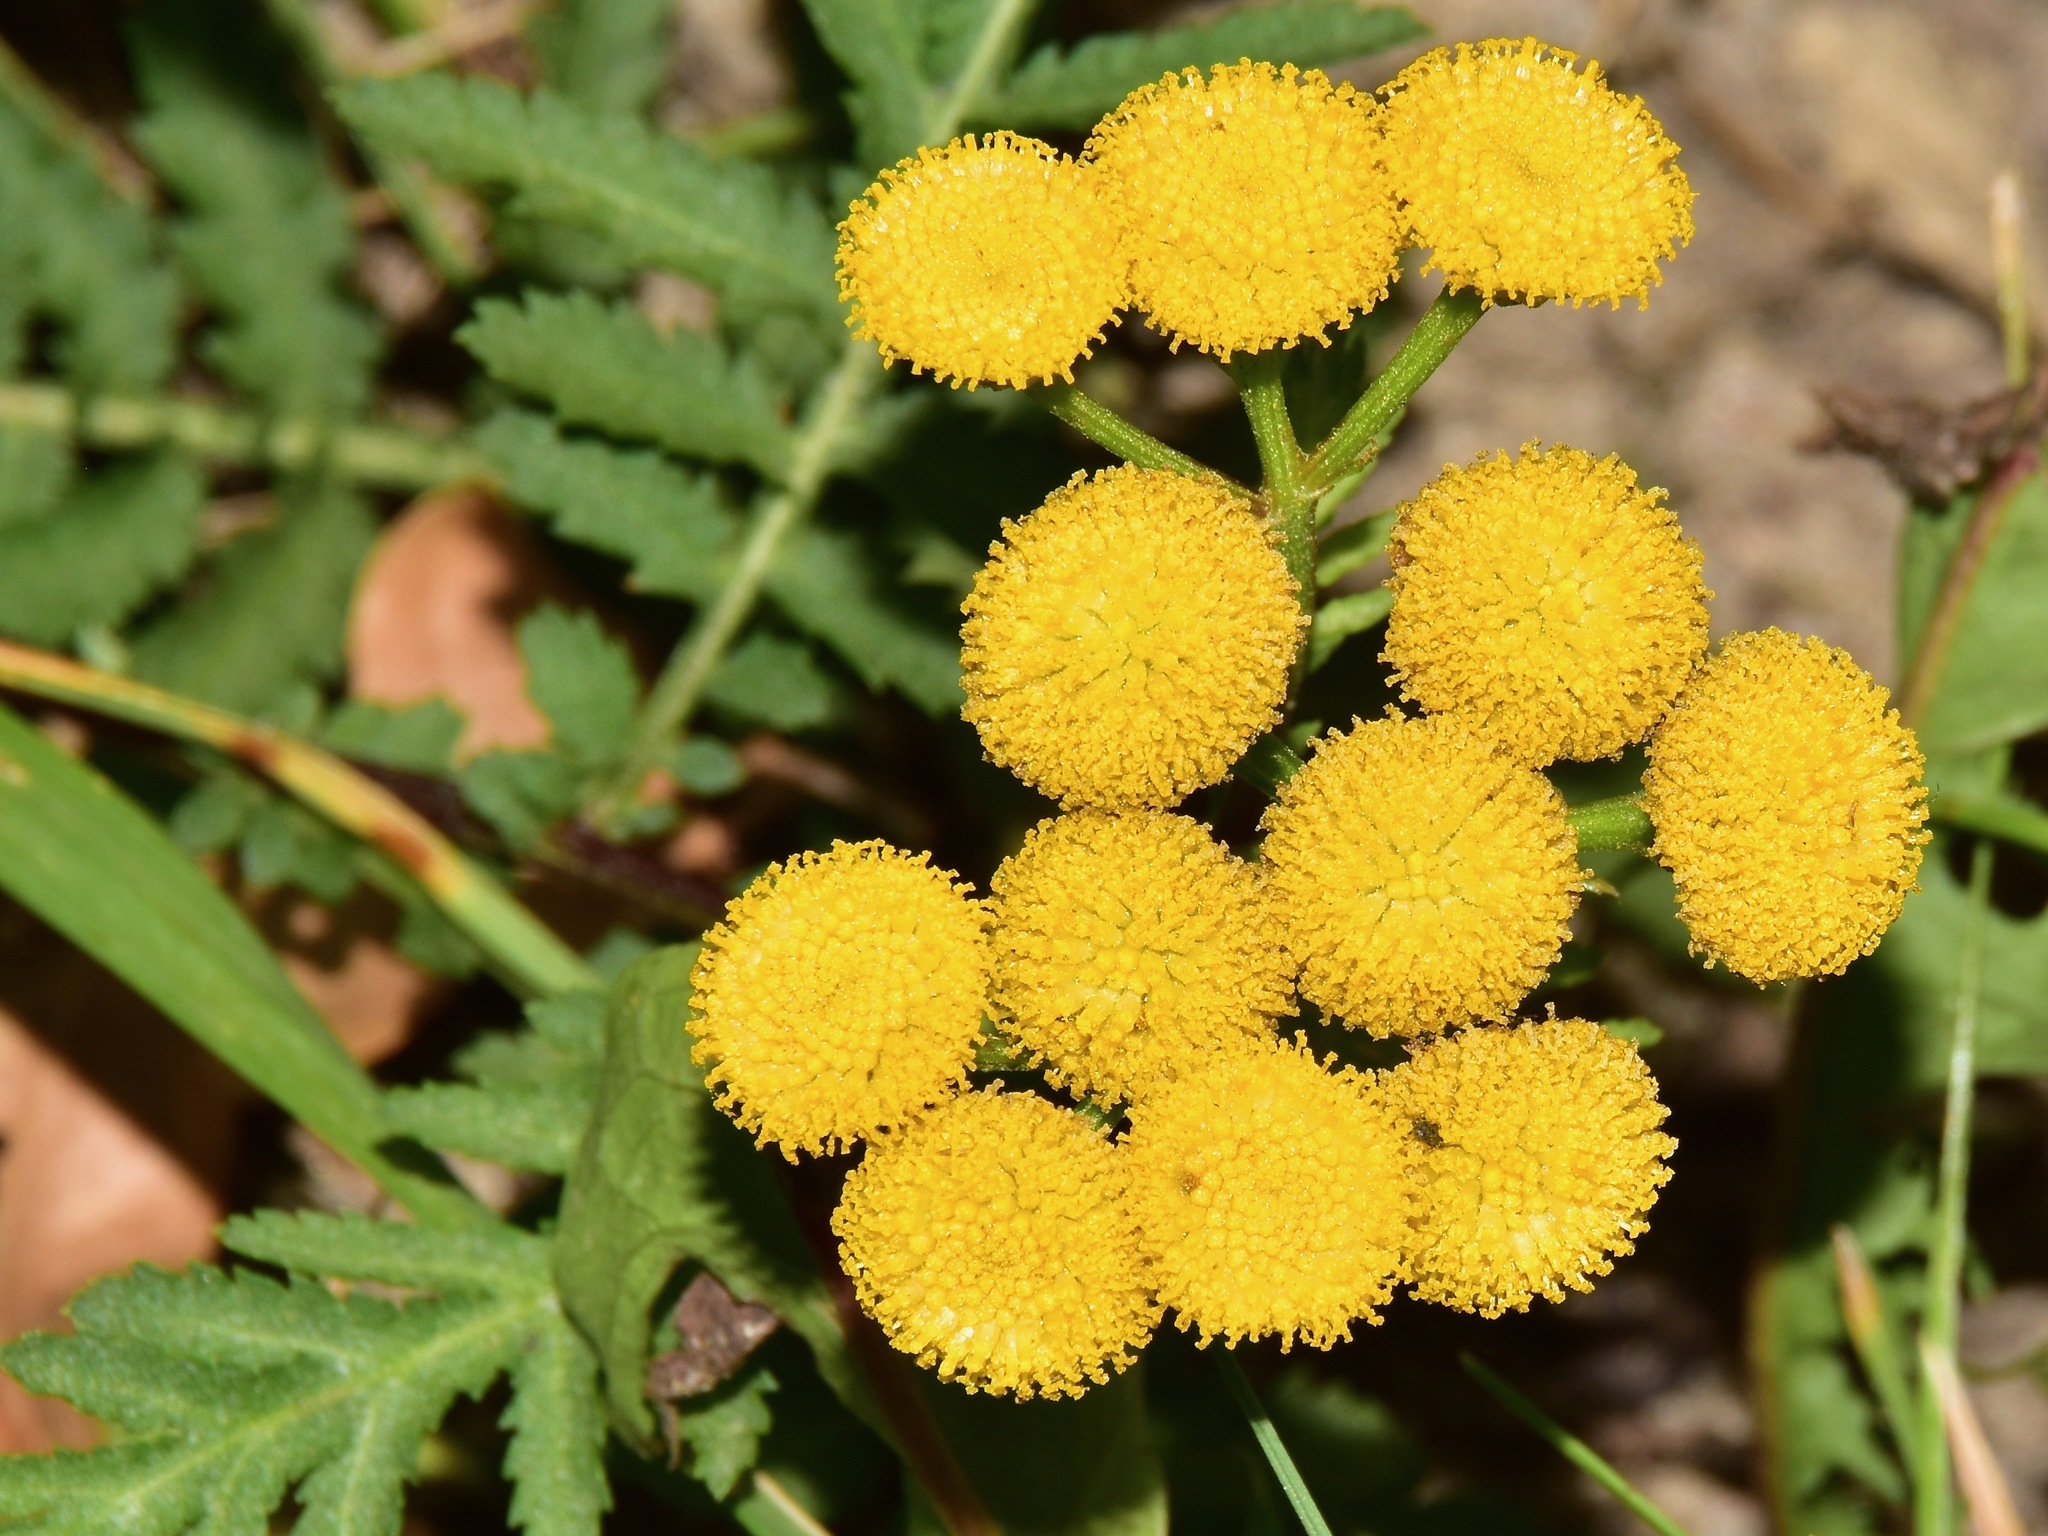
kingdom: Plantae
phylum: Tracheophyta
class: Magnoliopsida
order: Asterales
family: Asteraceae
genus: Tanacetum
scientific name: Tanacetum vulgare
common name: Common tansy
